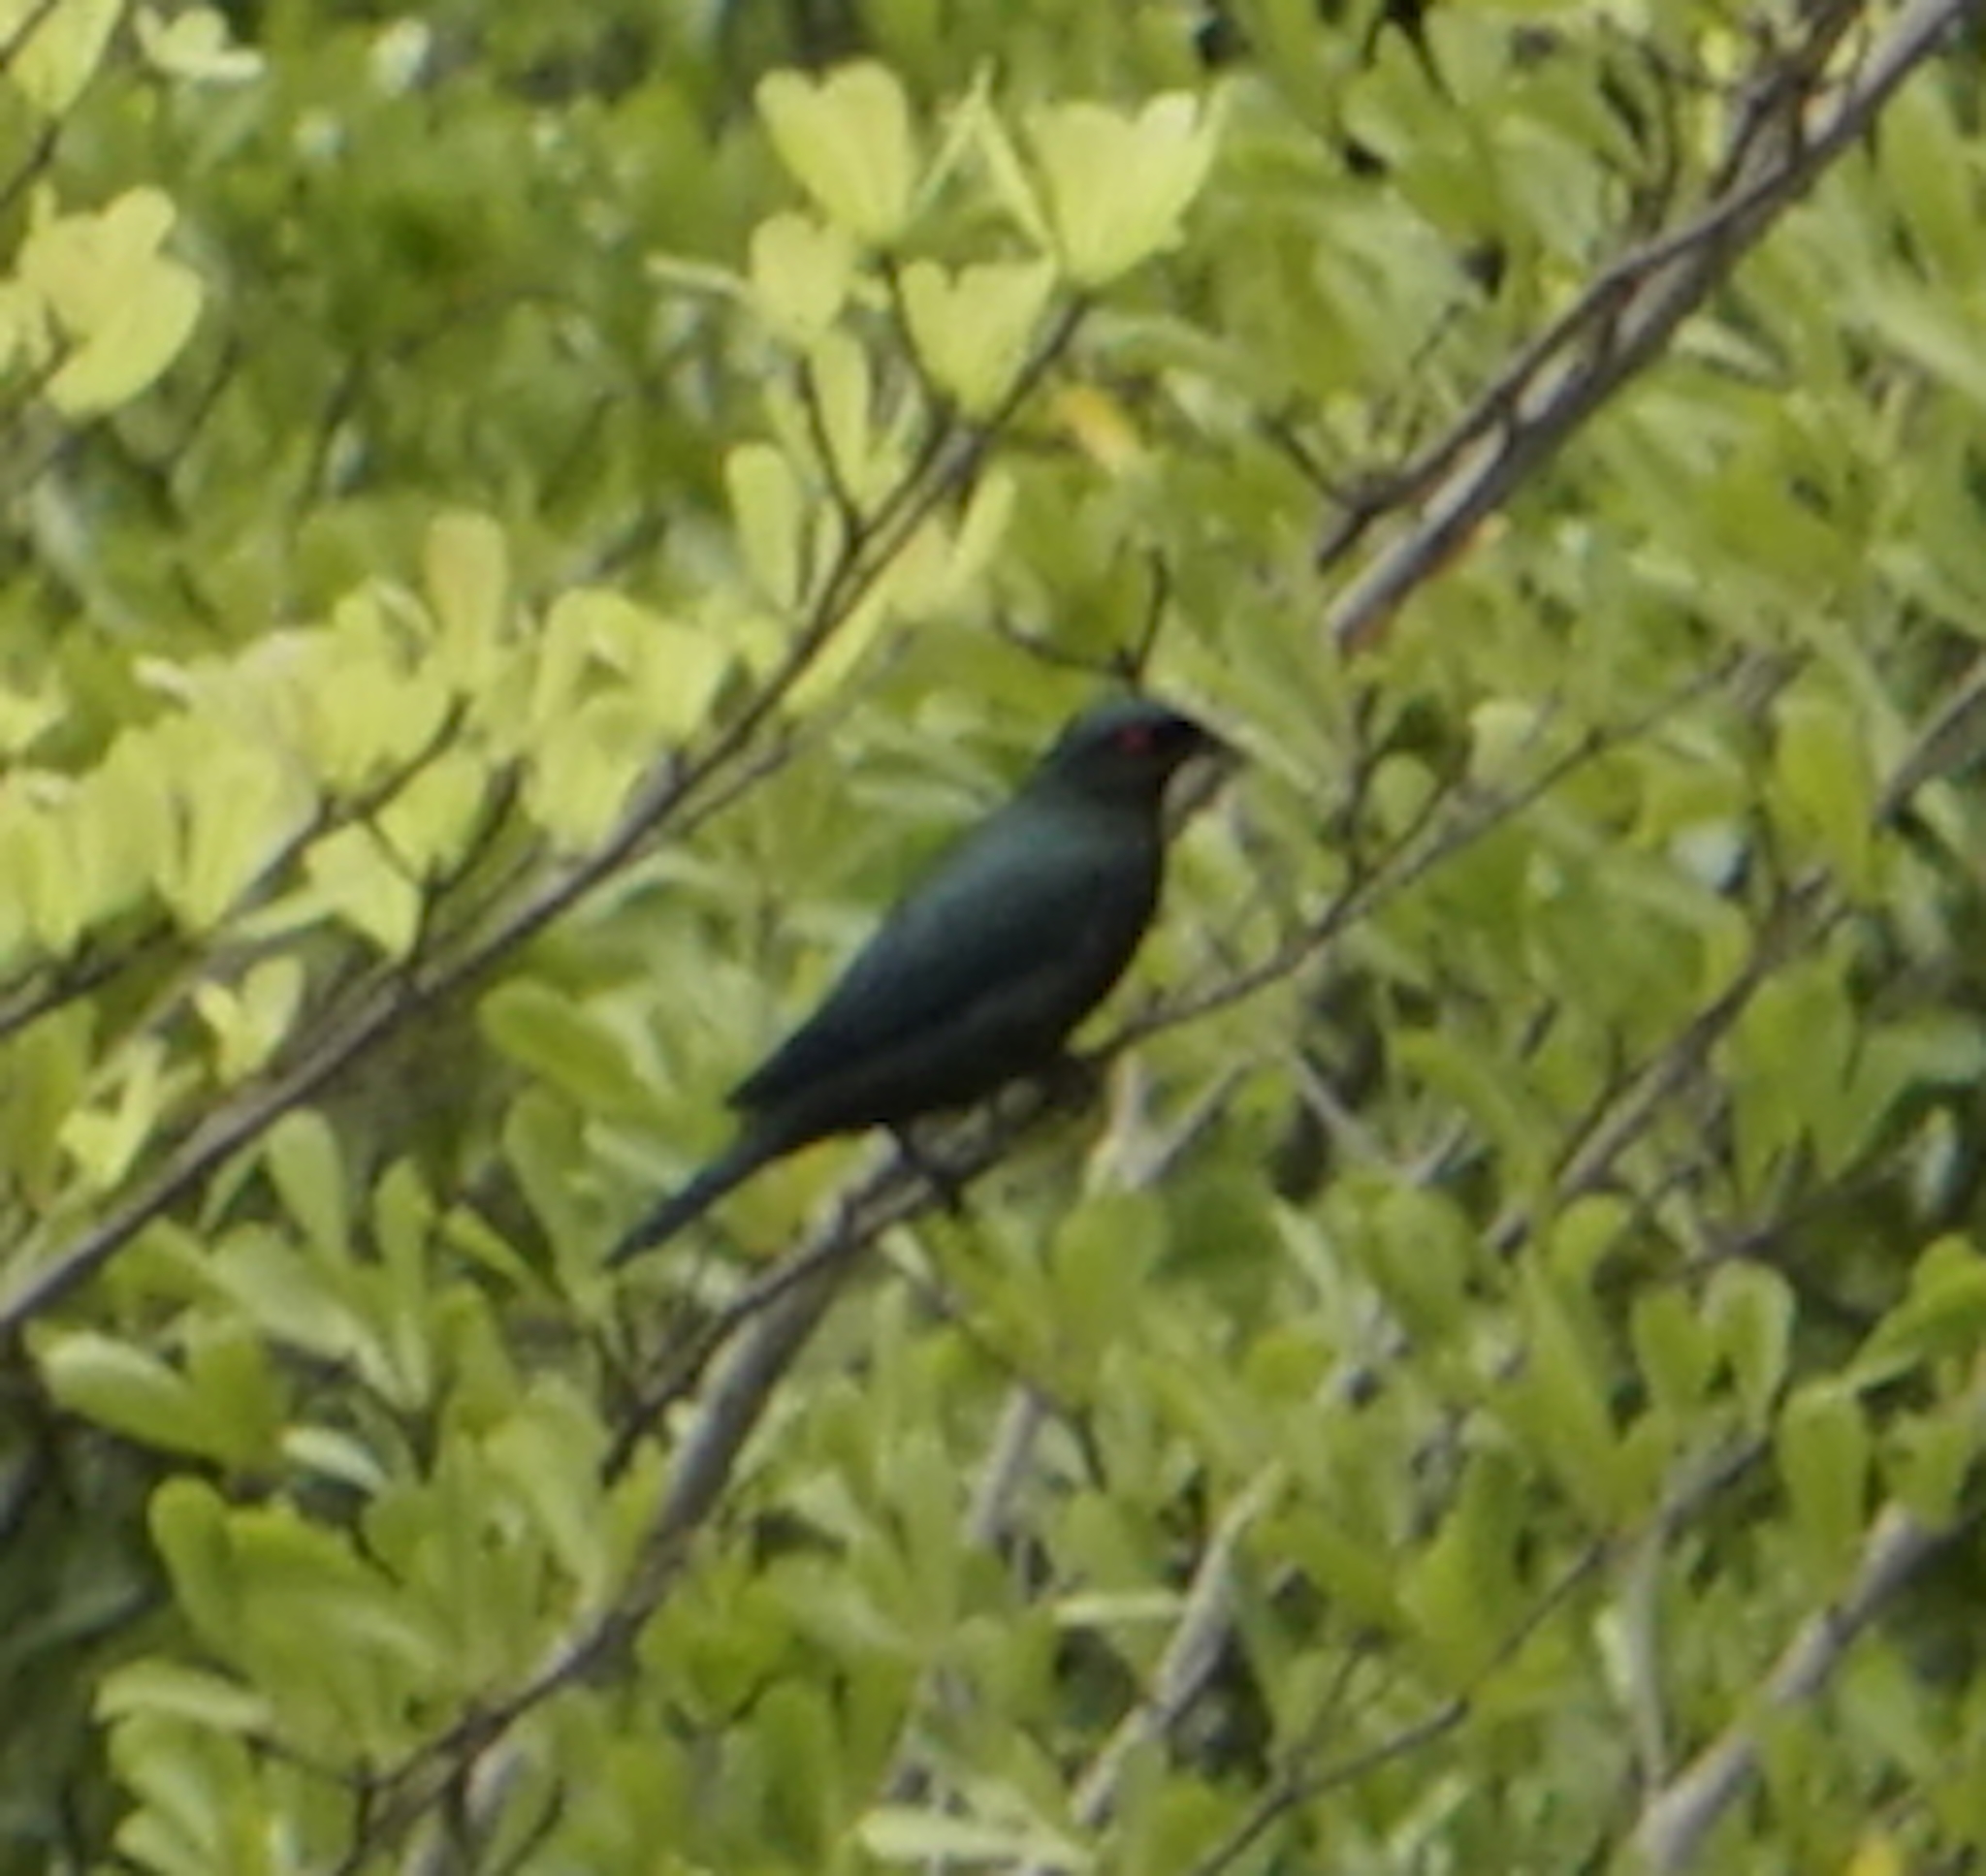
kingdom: Animalia
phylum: Chordata
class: Aves
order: Passeriformes
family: Sturnidae
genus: Aplonis
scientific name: Aplonis panayensis
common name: Asian glossy starling
